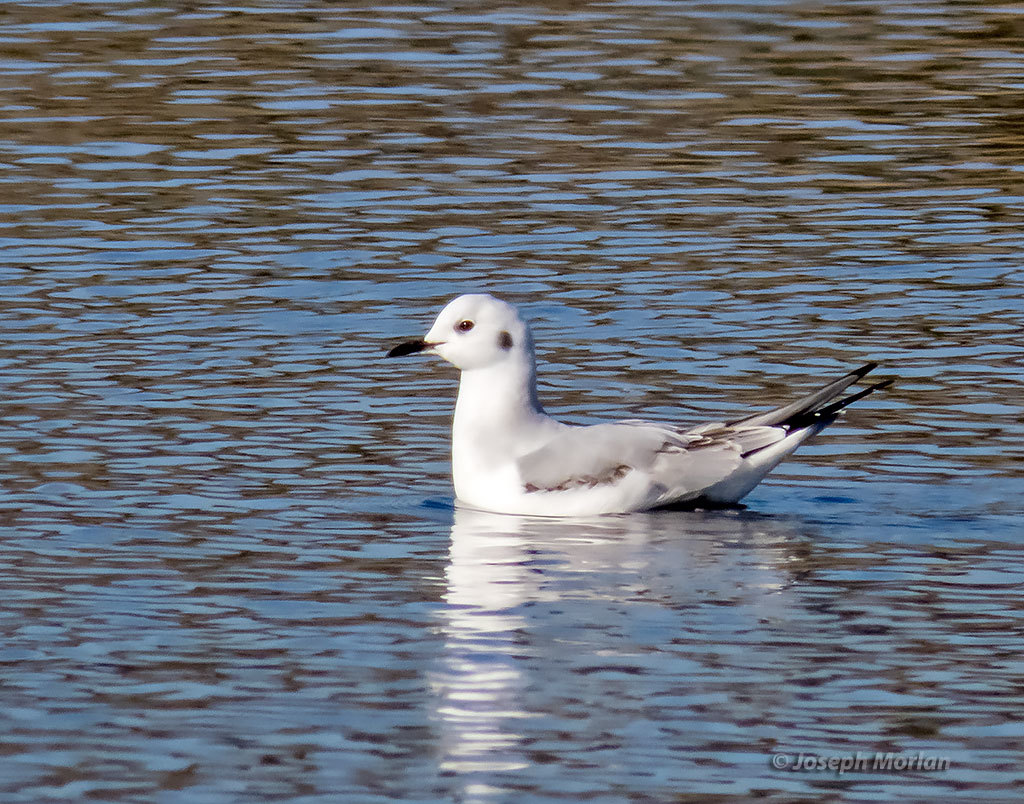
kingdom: Animalia
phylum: Chordata
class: Aves
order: Charadriiformes
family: Laridae
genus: Chroicocephalus
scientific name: Chroicocephalus philadelphia
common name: Bonaparte's gull
